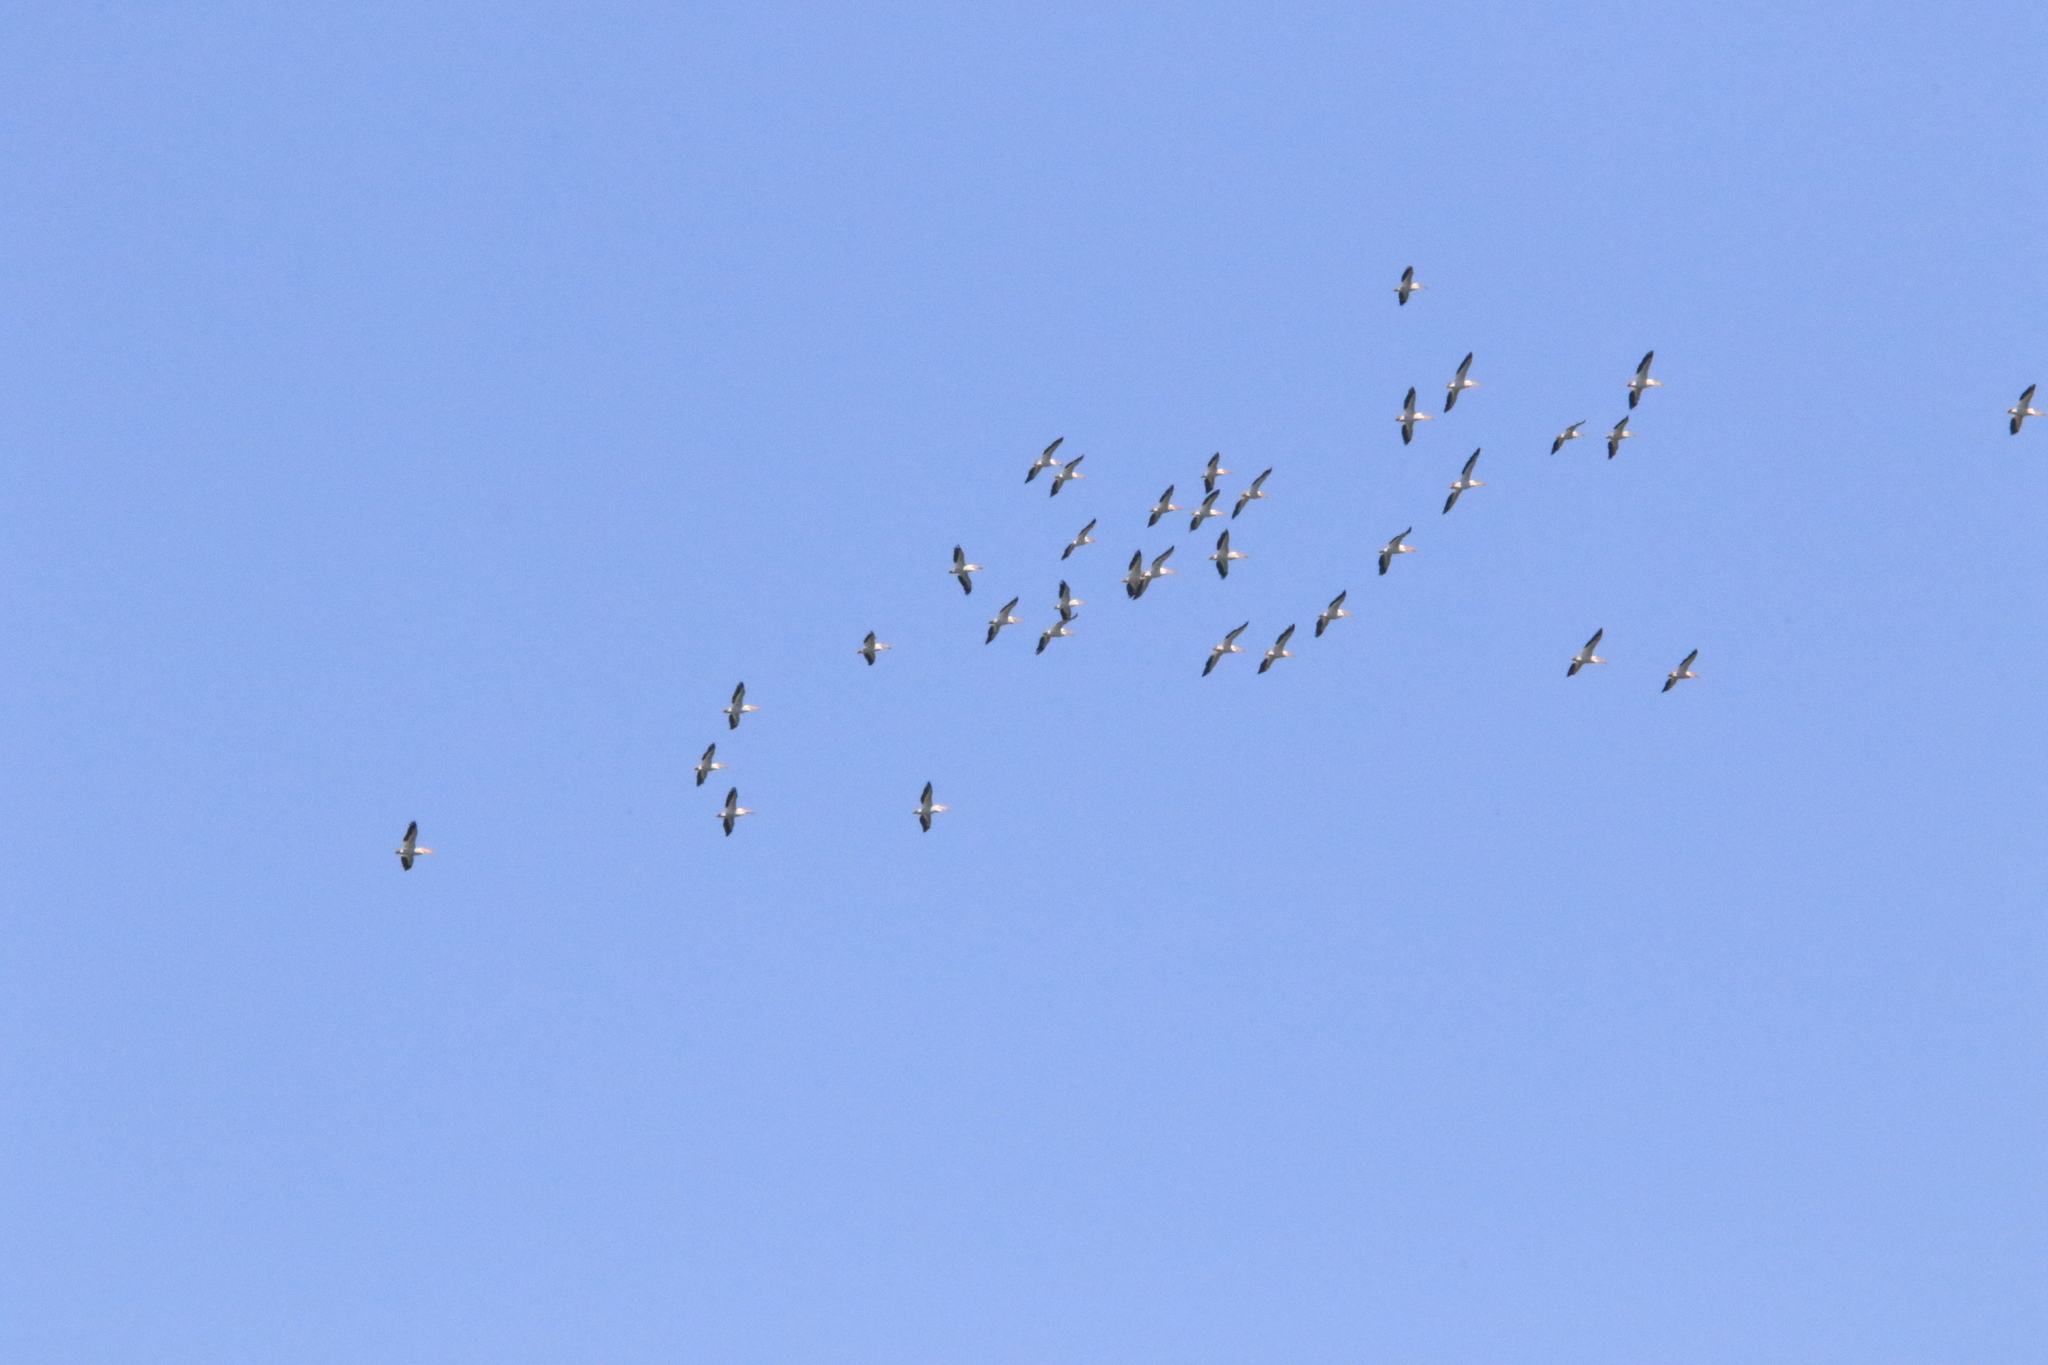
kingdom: Animalia
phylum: Chordata
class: Aves
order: Pelecaniformes
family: Pelecanidae
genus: Pelecanus
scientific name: Pelecanus erythrorhynchos
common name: American white pelican
